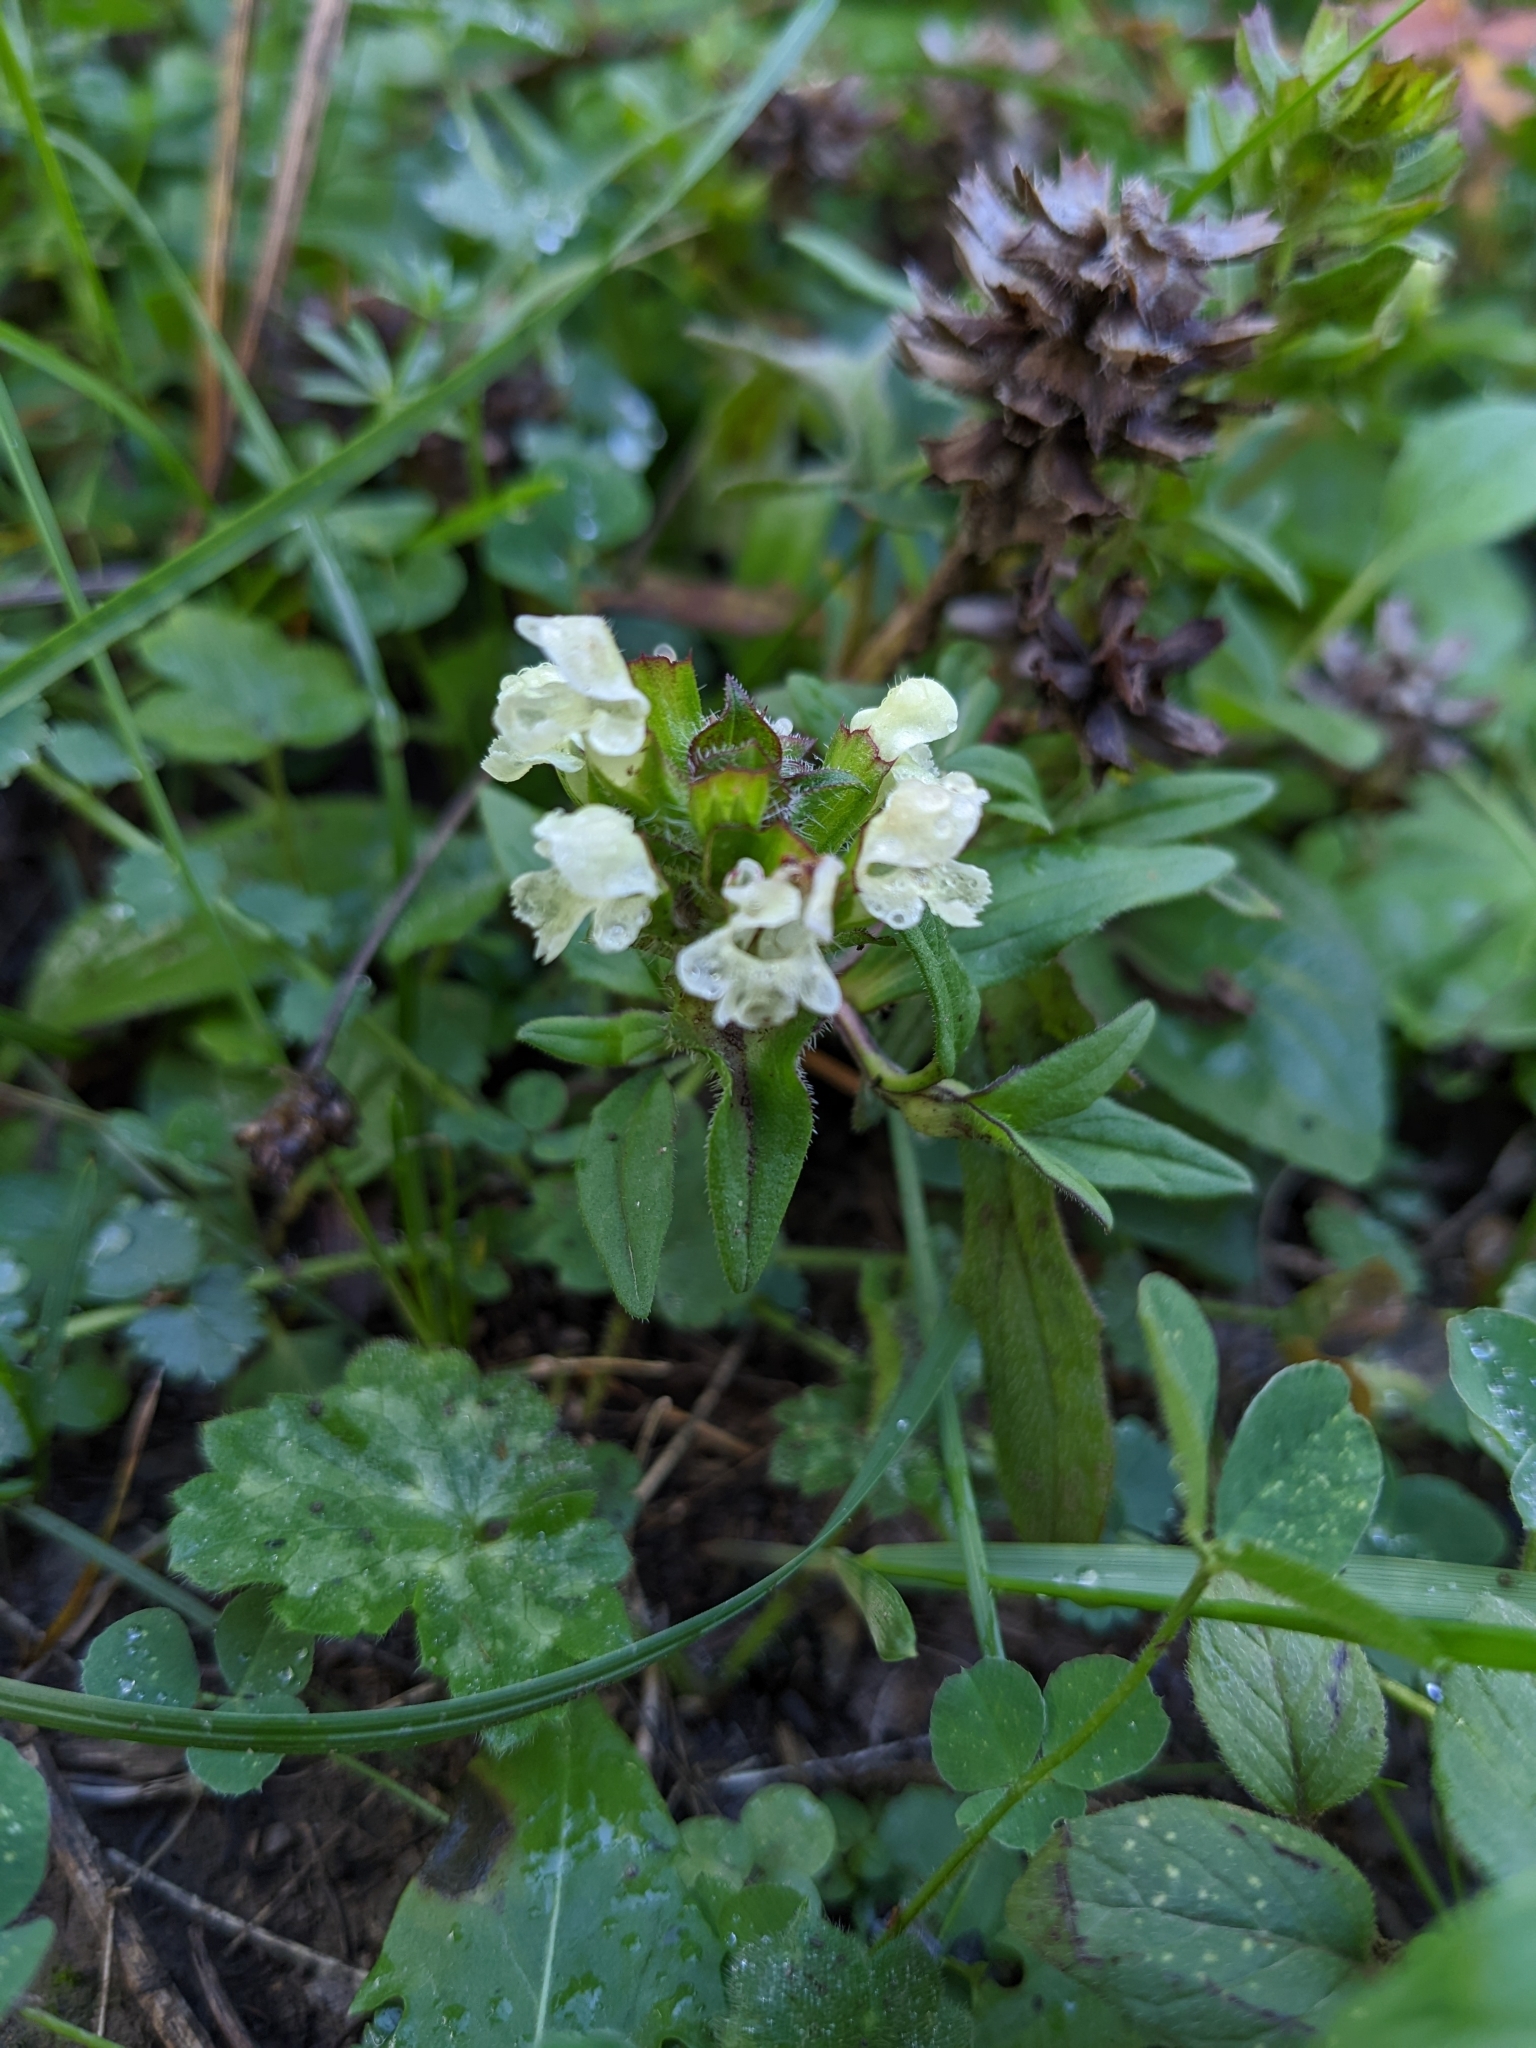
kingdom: Plantae
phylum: Tracheophyta
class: Magnoliopsida
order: Lamiales
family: Lamiaceae
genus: Prunella
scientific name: Prunella laciniata
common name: Cut-leaved selfheal
